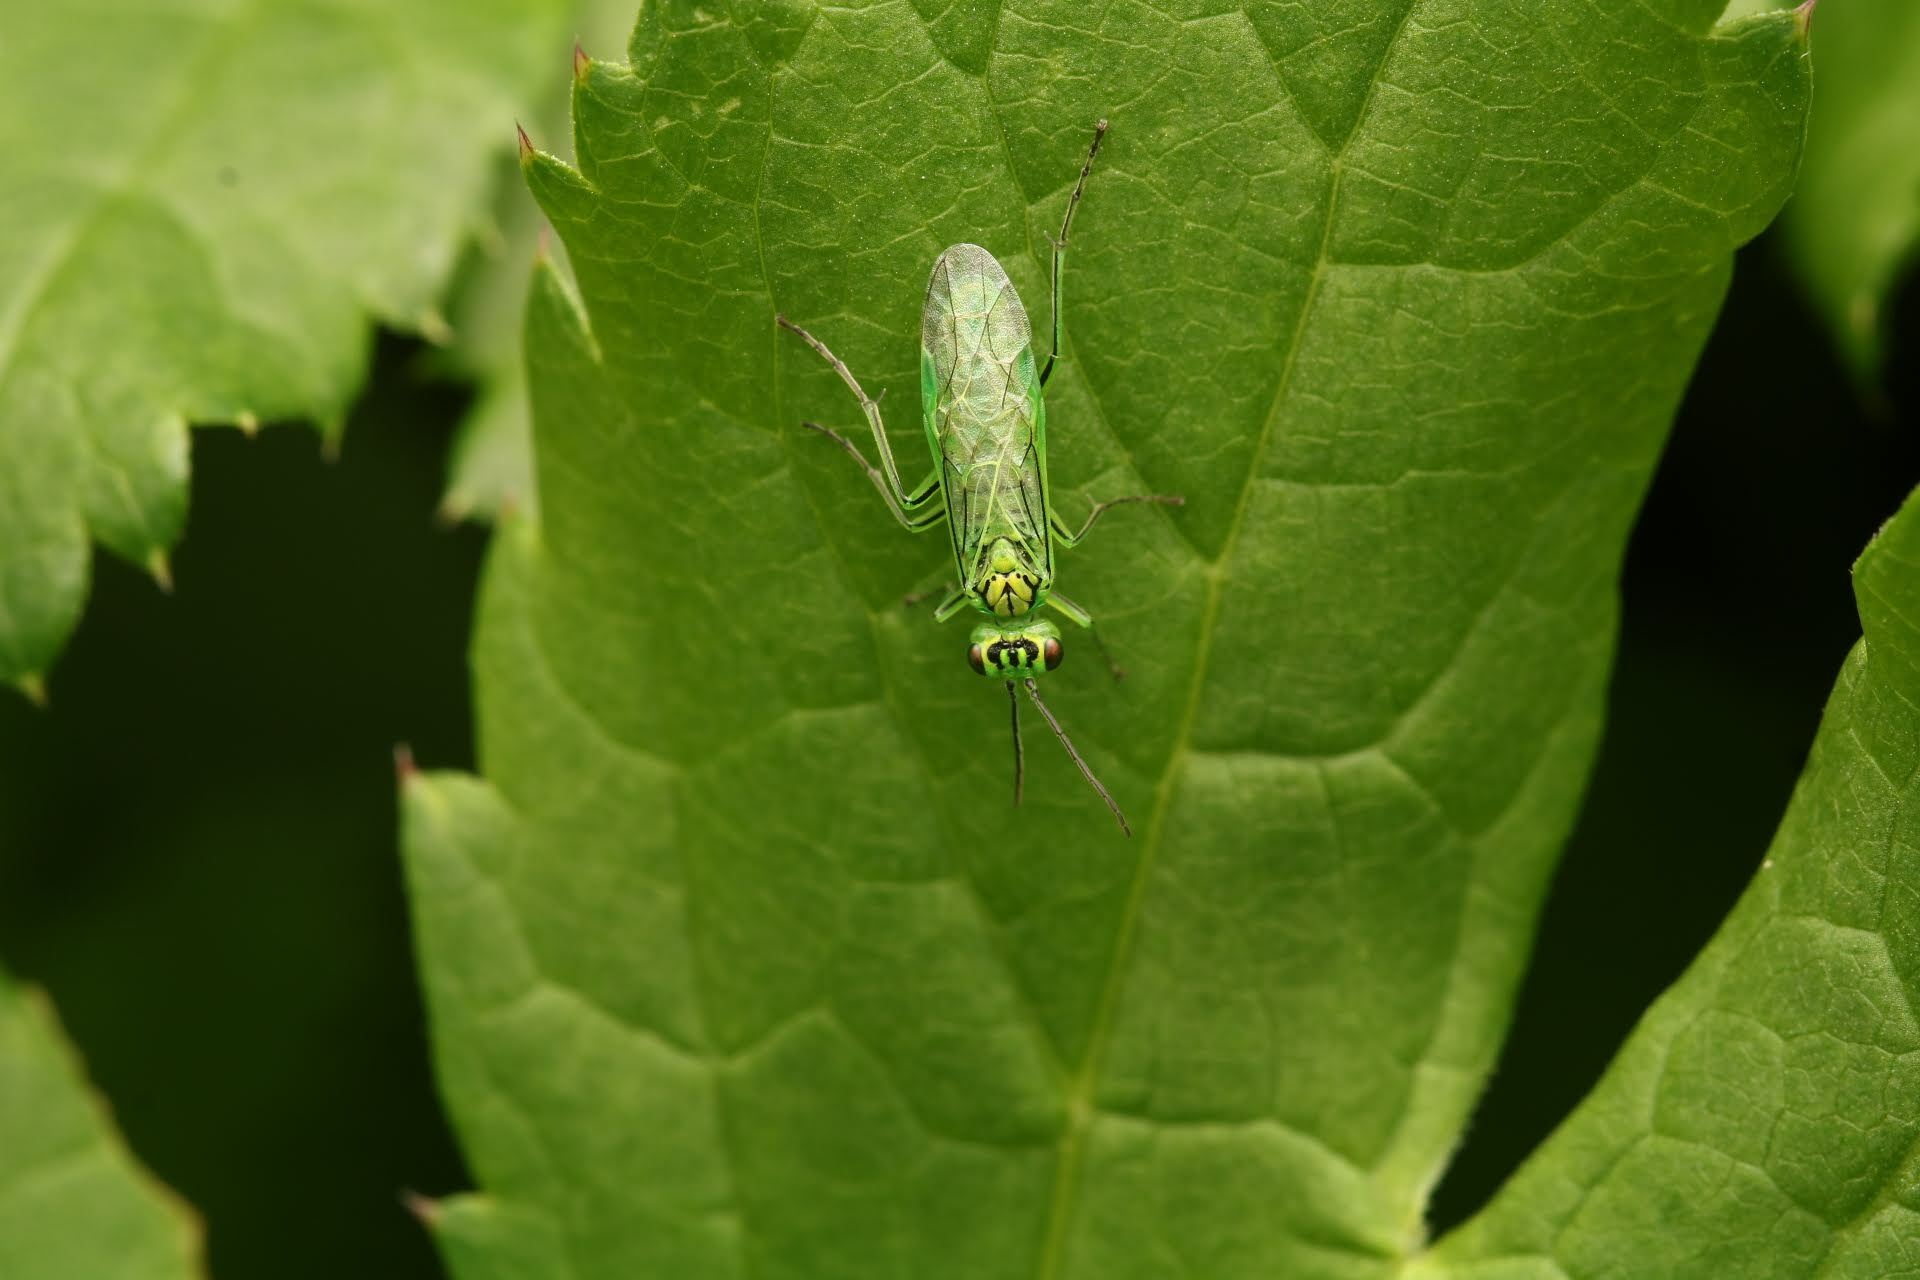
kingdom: Animalia
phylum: Arthropoda
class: Insecta
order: Hymenoptera
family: Tenthredinidae
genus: Rhogogaster
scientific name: Rhogogaster punctulata
